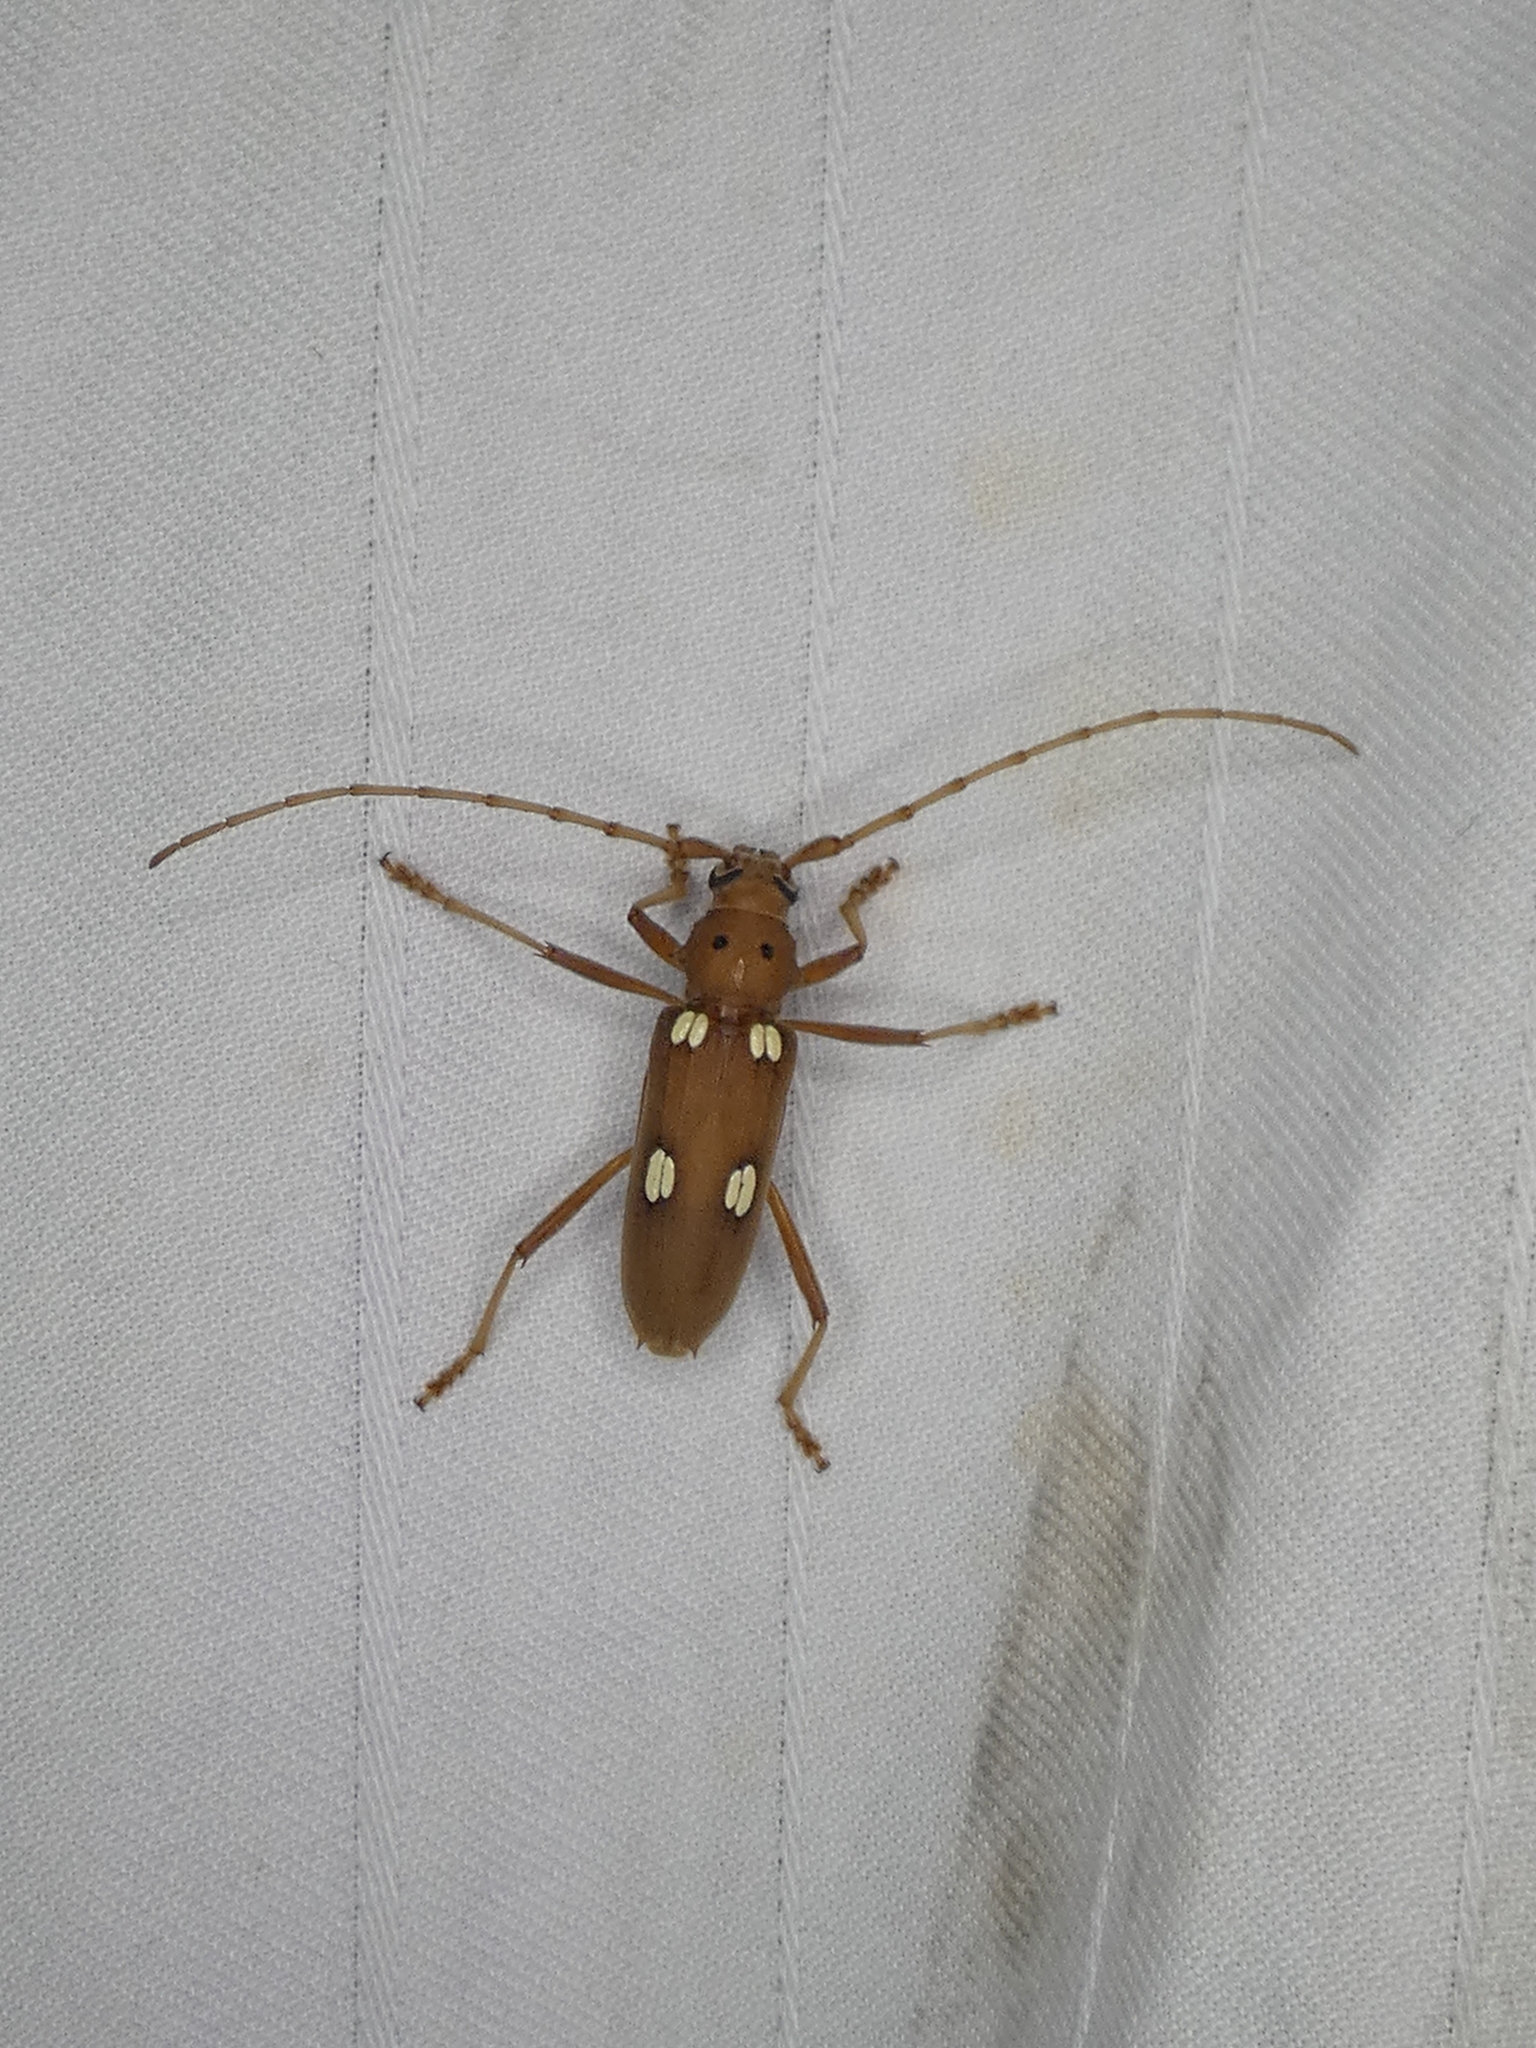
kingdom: Animalia
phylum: Arthropoda
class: Insecta
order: Coleoptera
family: Cerambycidae
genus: Eburia
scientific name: Eburia quadrigeminata
